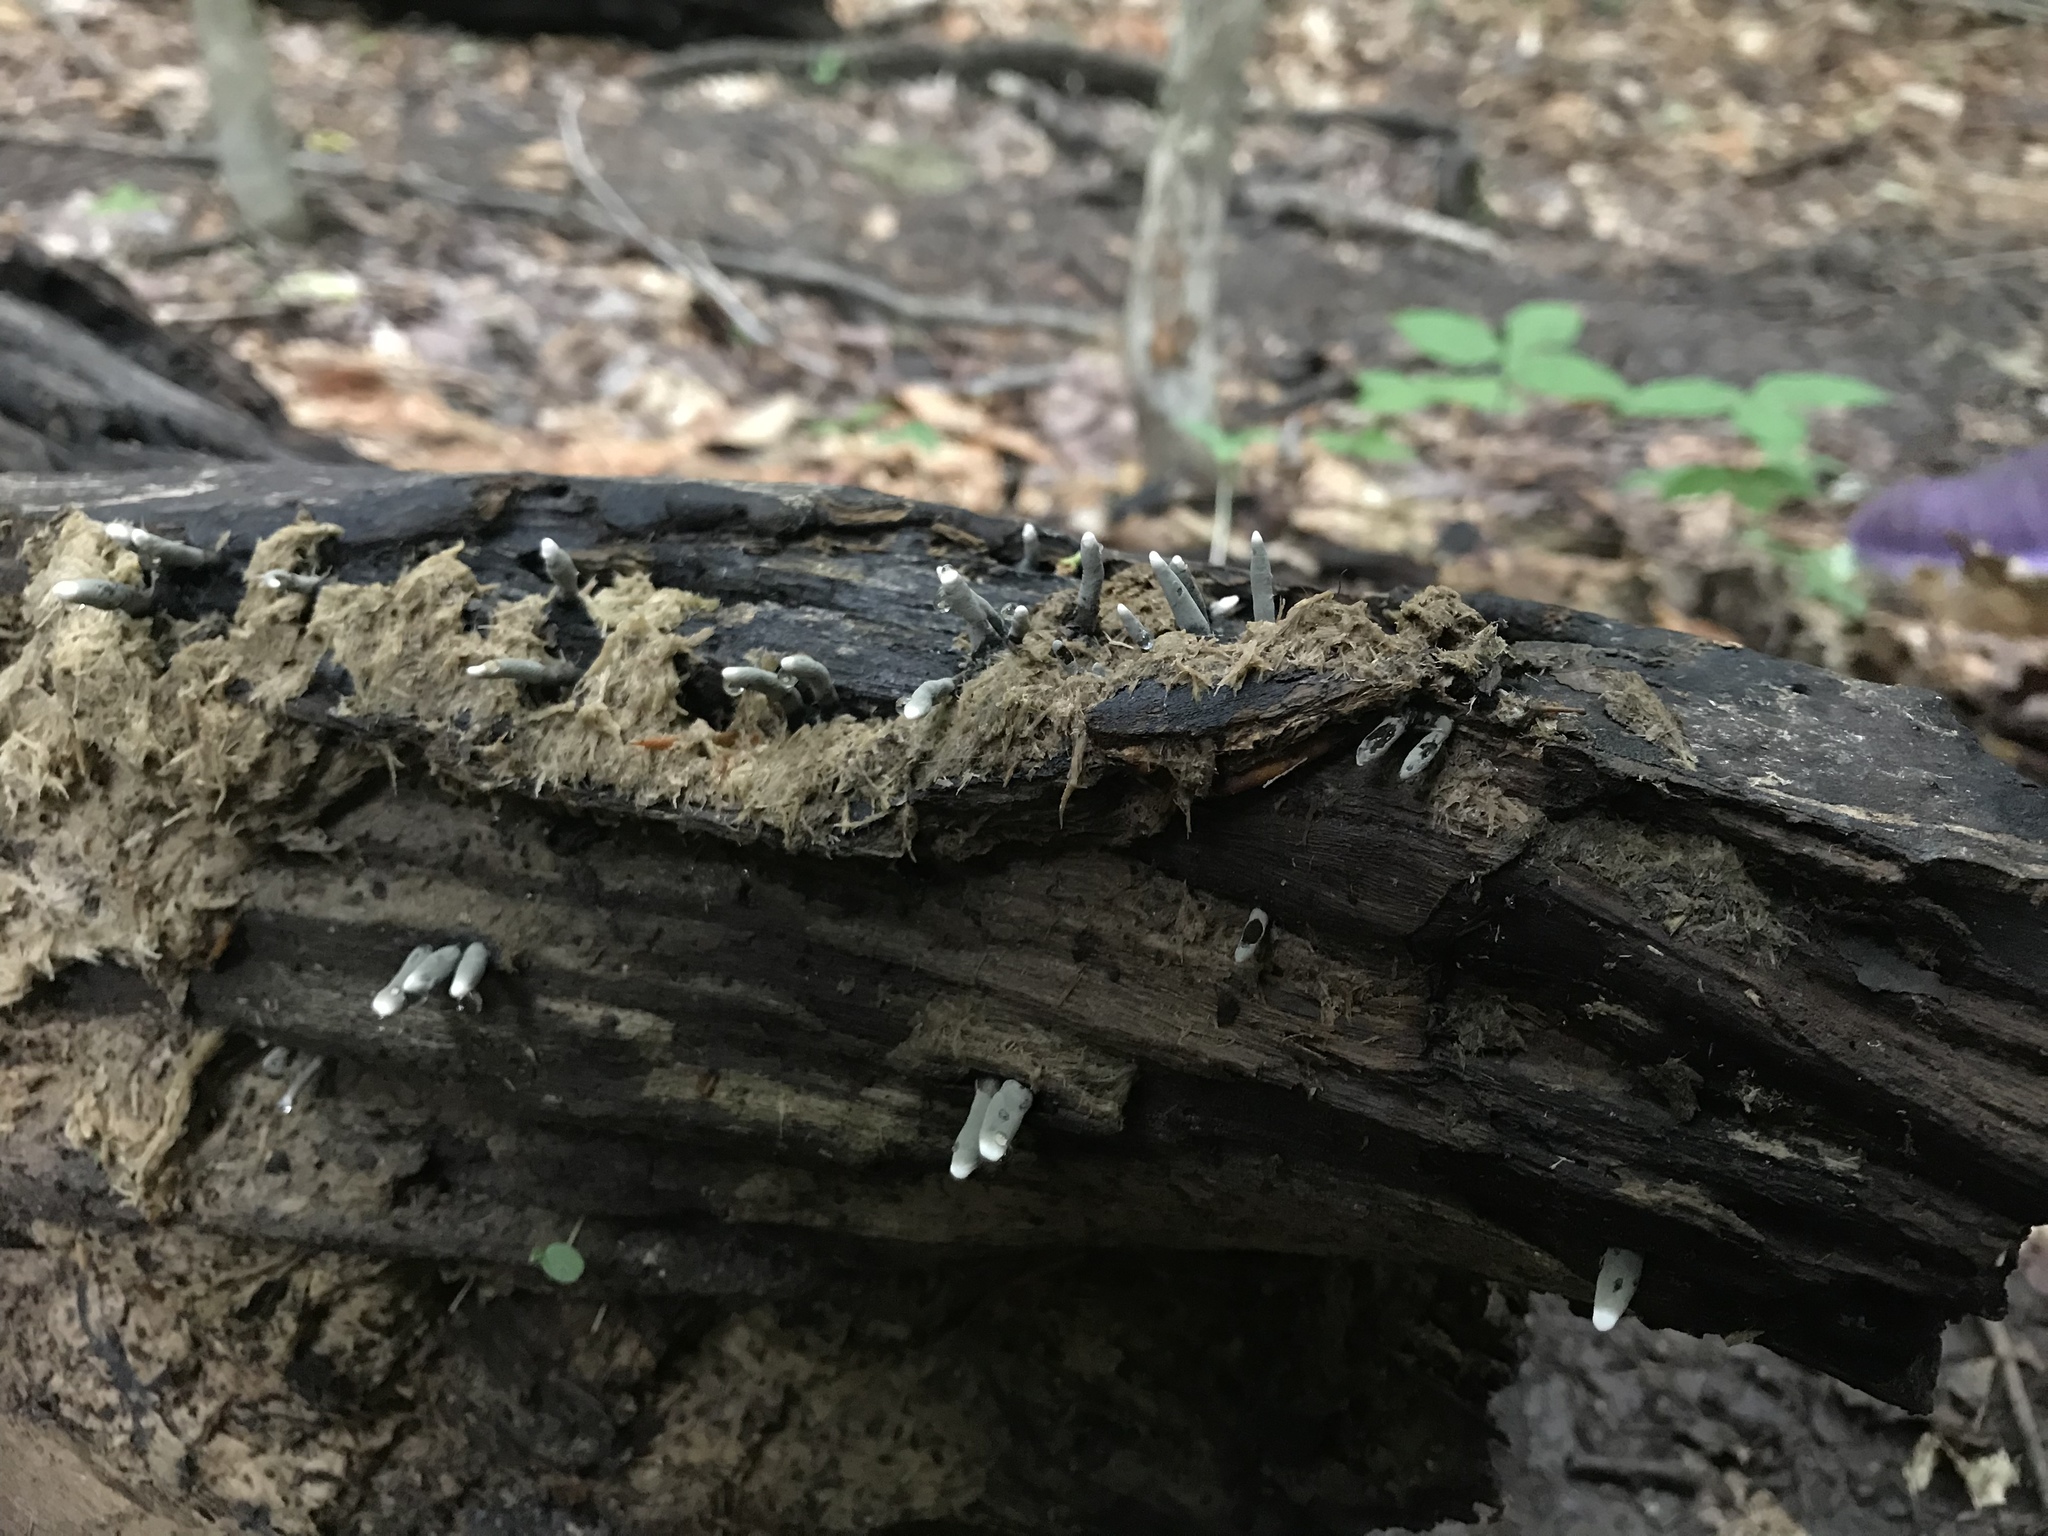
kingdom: Fungi
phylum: Ascomycota
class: Sordariomycetes
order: Xylariales
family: Xylariaceae
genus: Xylaria
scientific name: Xylaria hypoxylon
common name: Candle-snuff fungus
